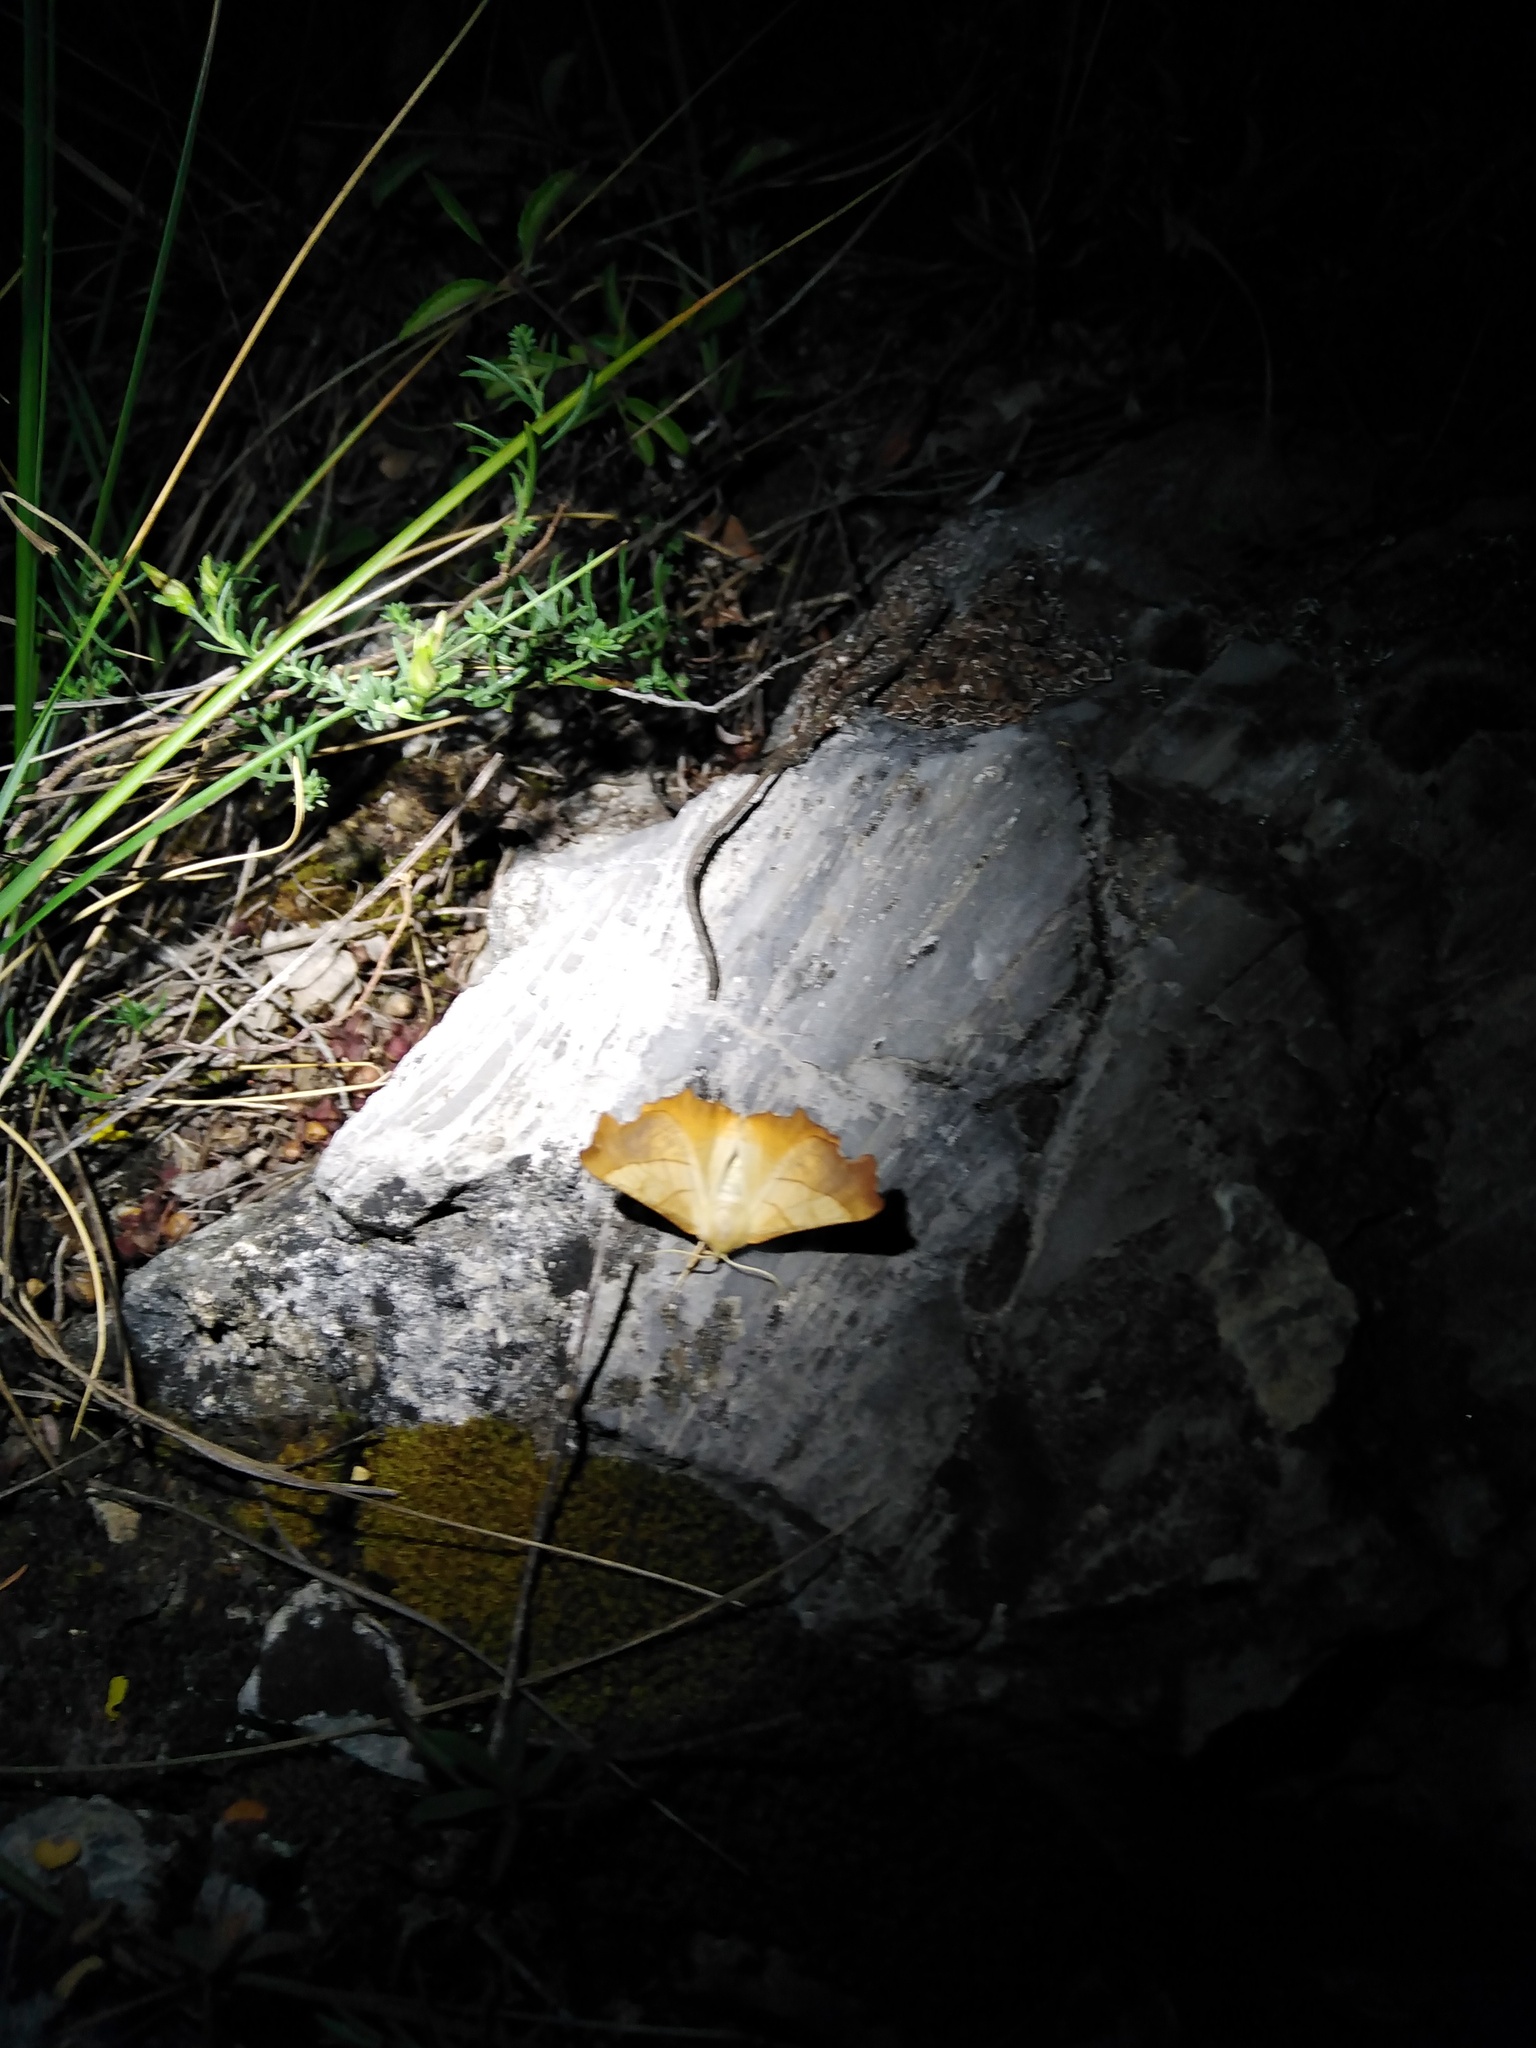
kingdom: Animalia
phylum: Arthropoda
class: Insecta
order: Lepidoptera
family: Geometridae
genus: Ennomos
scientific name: Ennomos fuscantaria
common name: Dusky thorn
